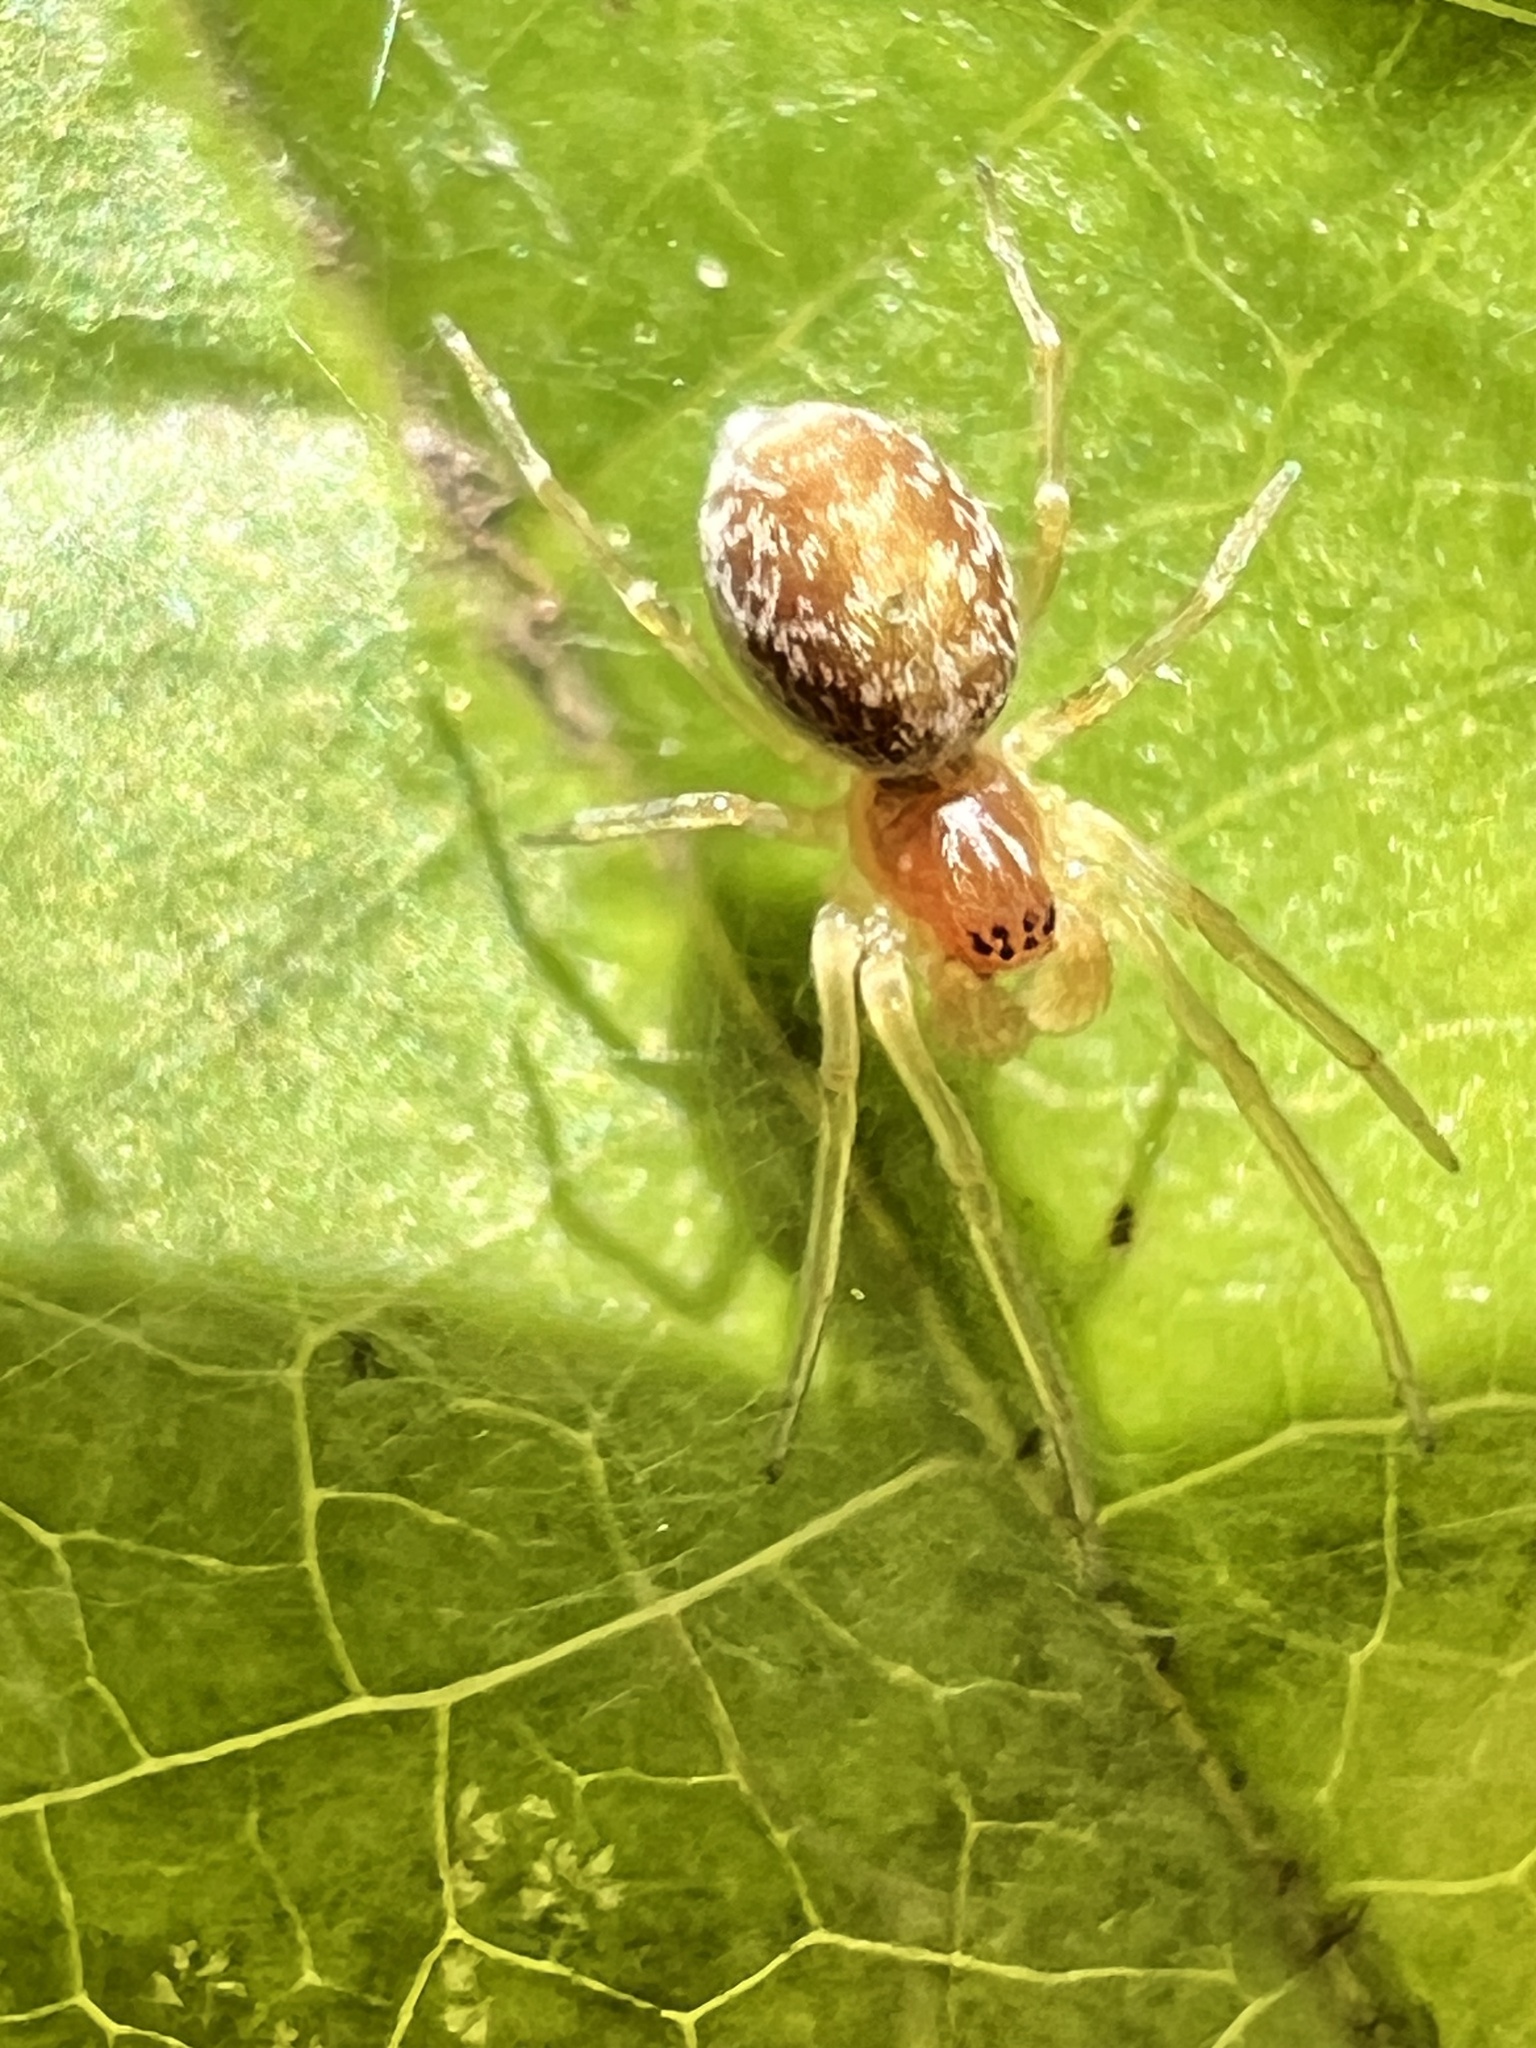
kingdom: Animalia
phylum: Arthropoda
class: Arachnida
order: Araneae
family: Dictynidae
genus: Emblyna
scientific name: Emblyna sublata
